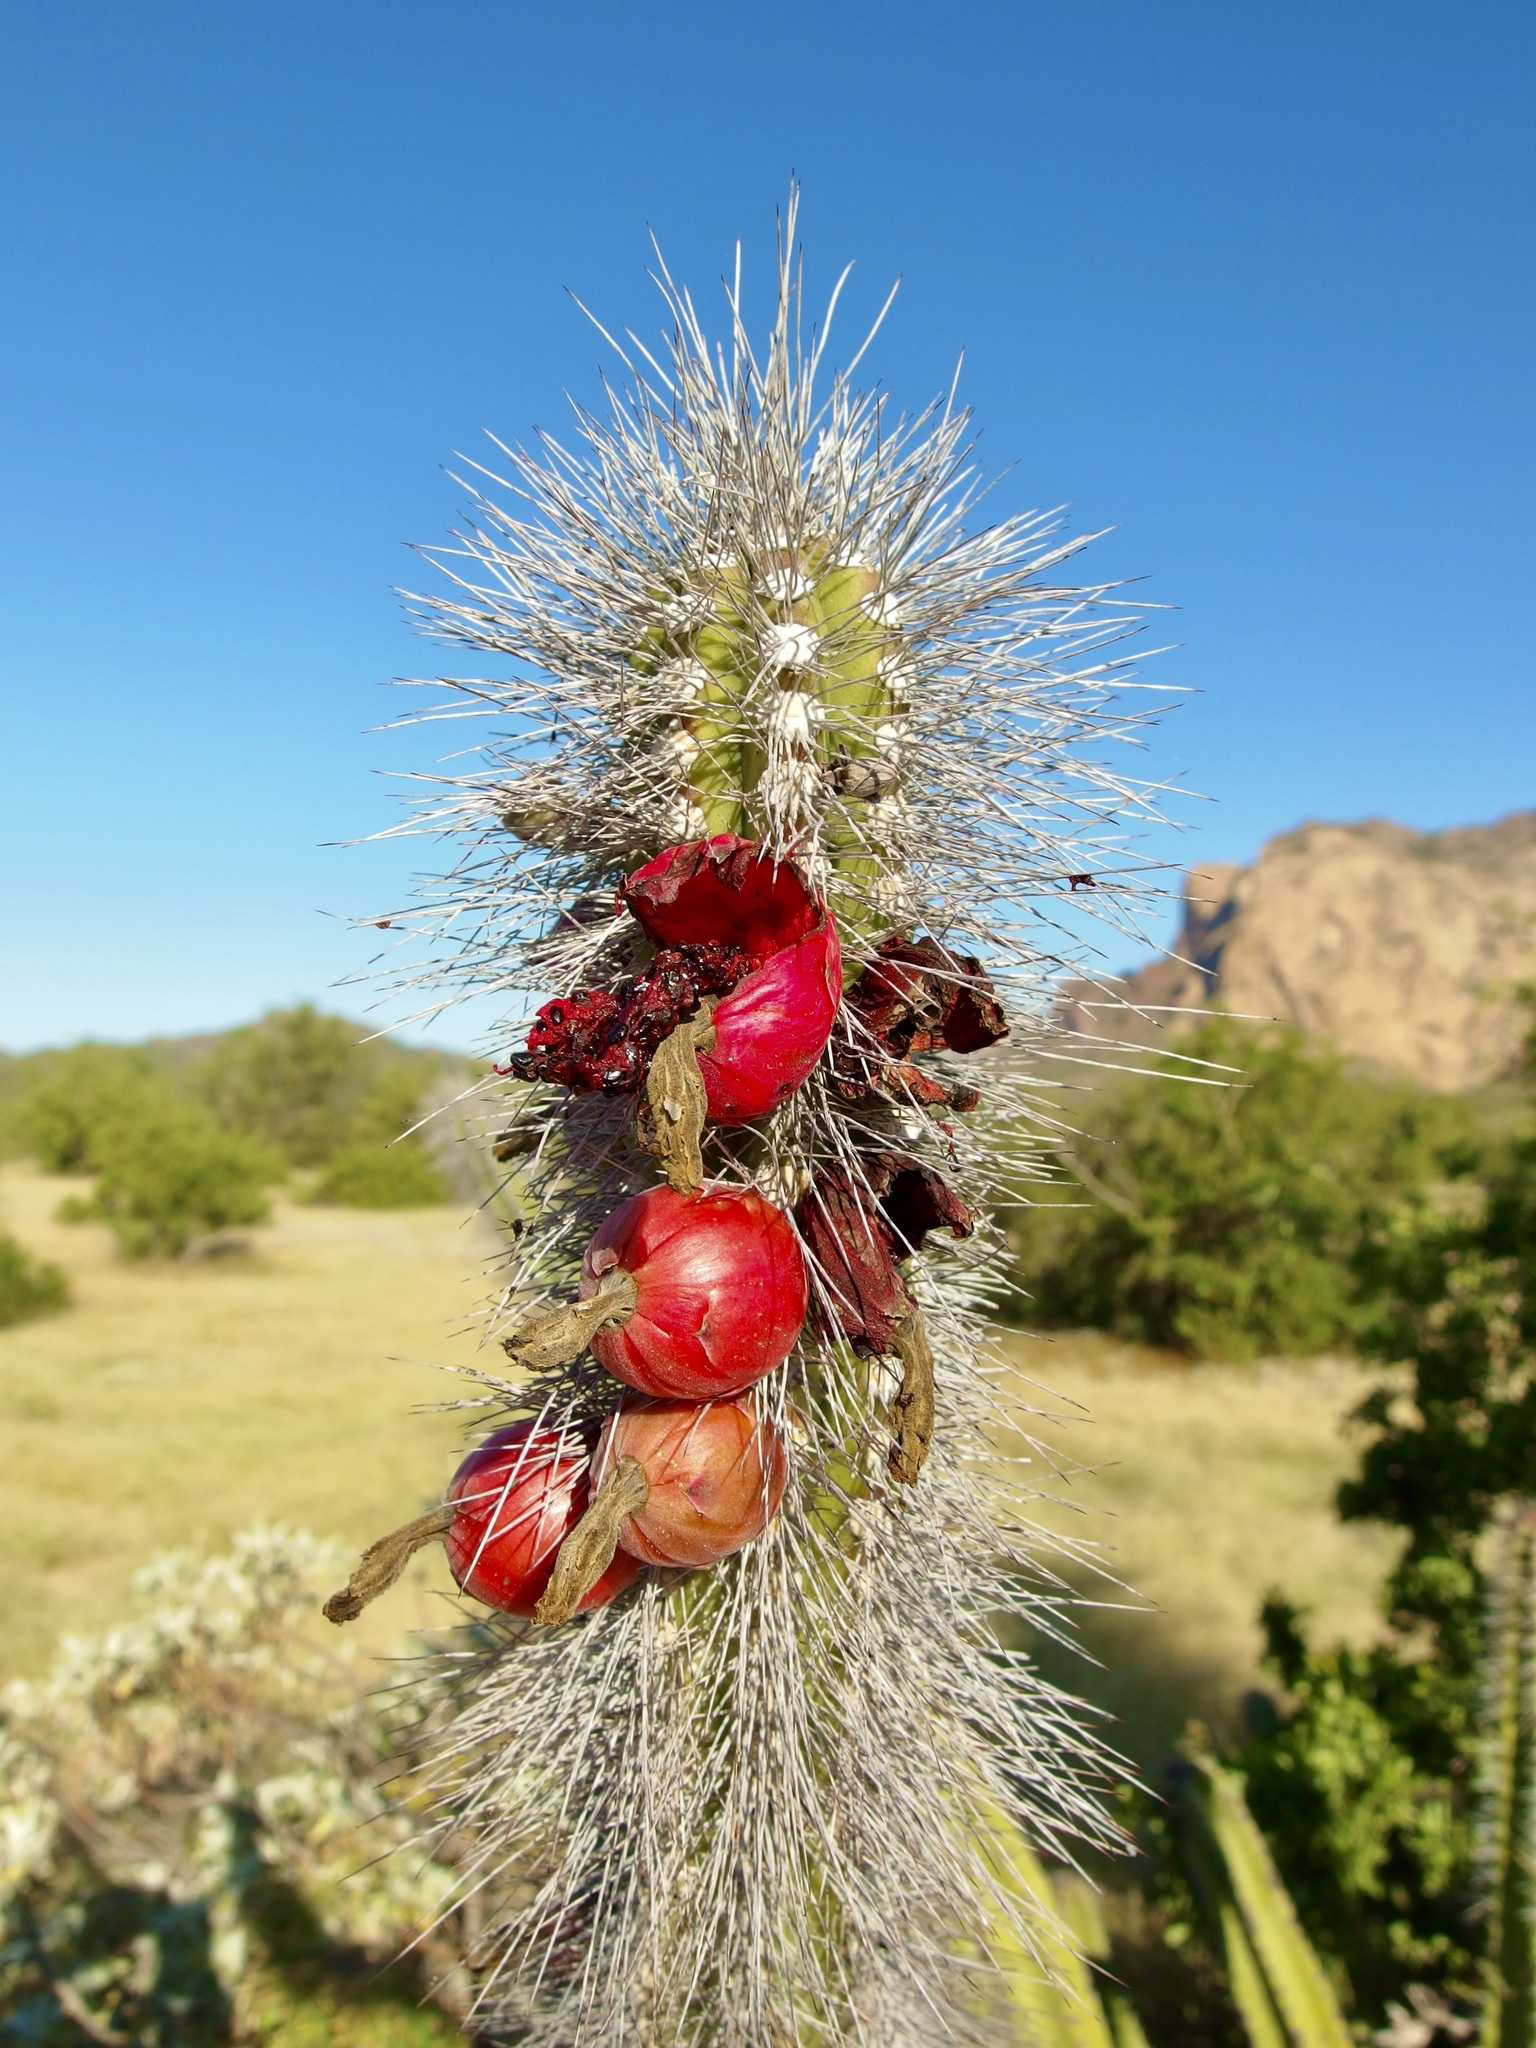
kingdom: Plantae
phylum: Tracheophyta
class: Magnoliopsida
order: Caryophyllales
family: Cactaceae
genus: Pachycereus
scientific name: Pachycereus schottii
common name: Senita cactus
